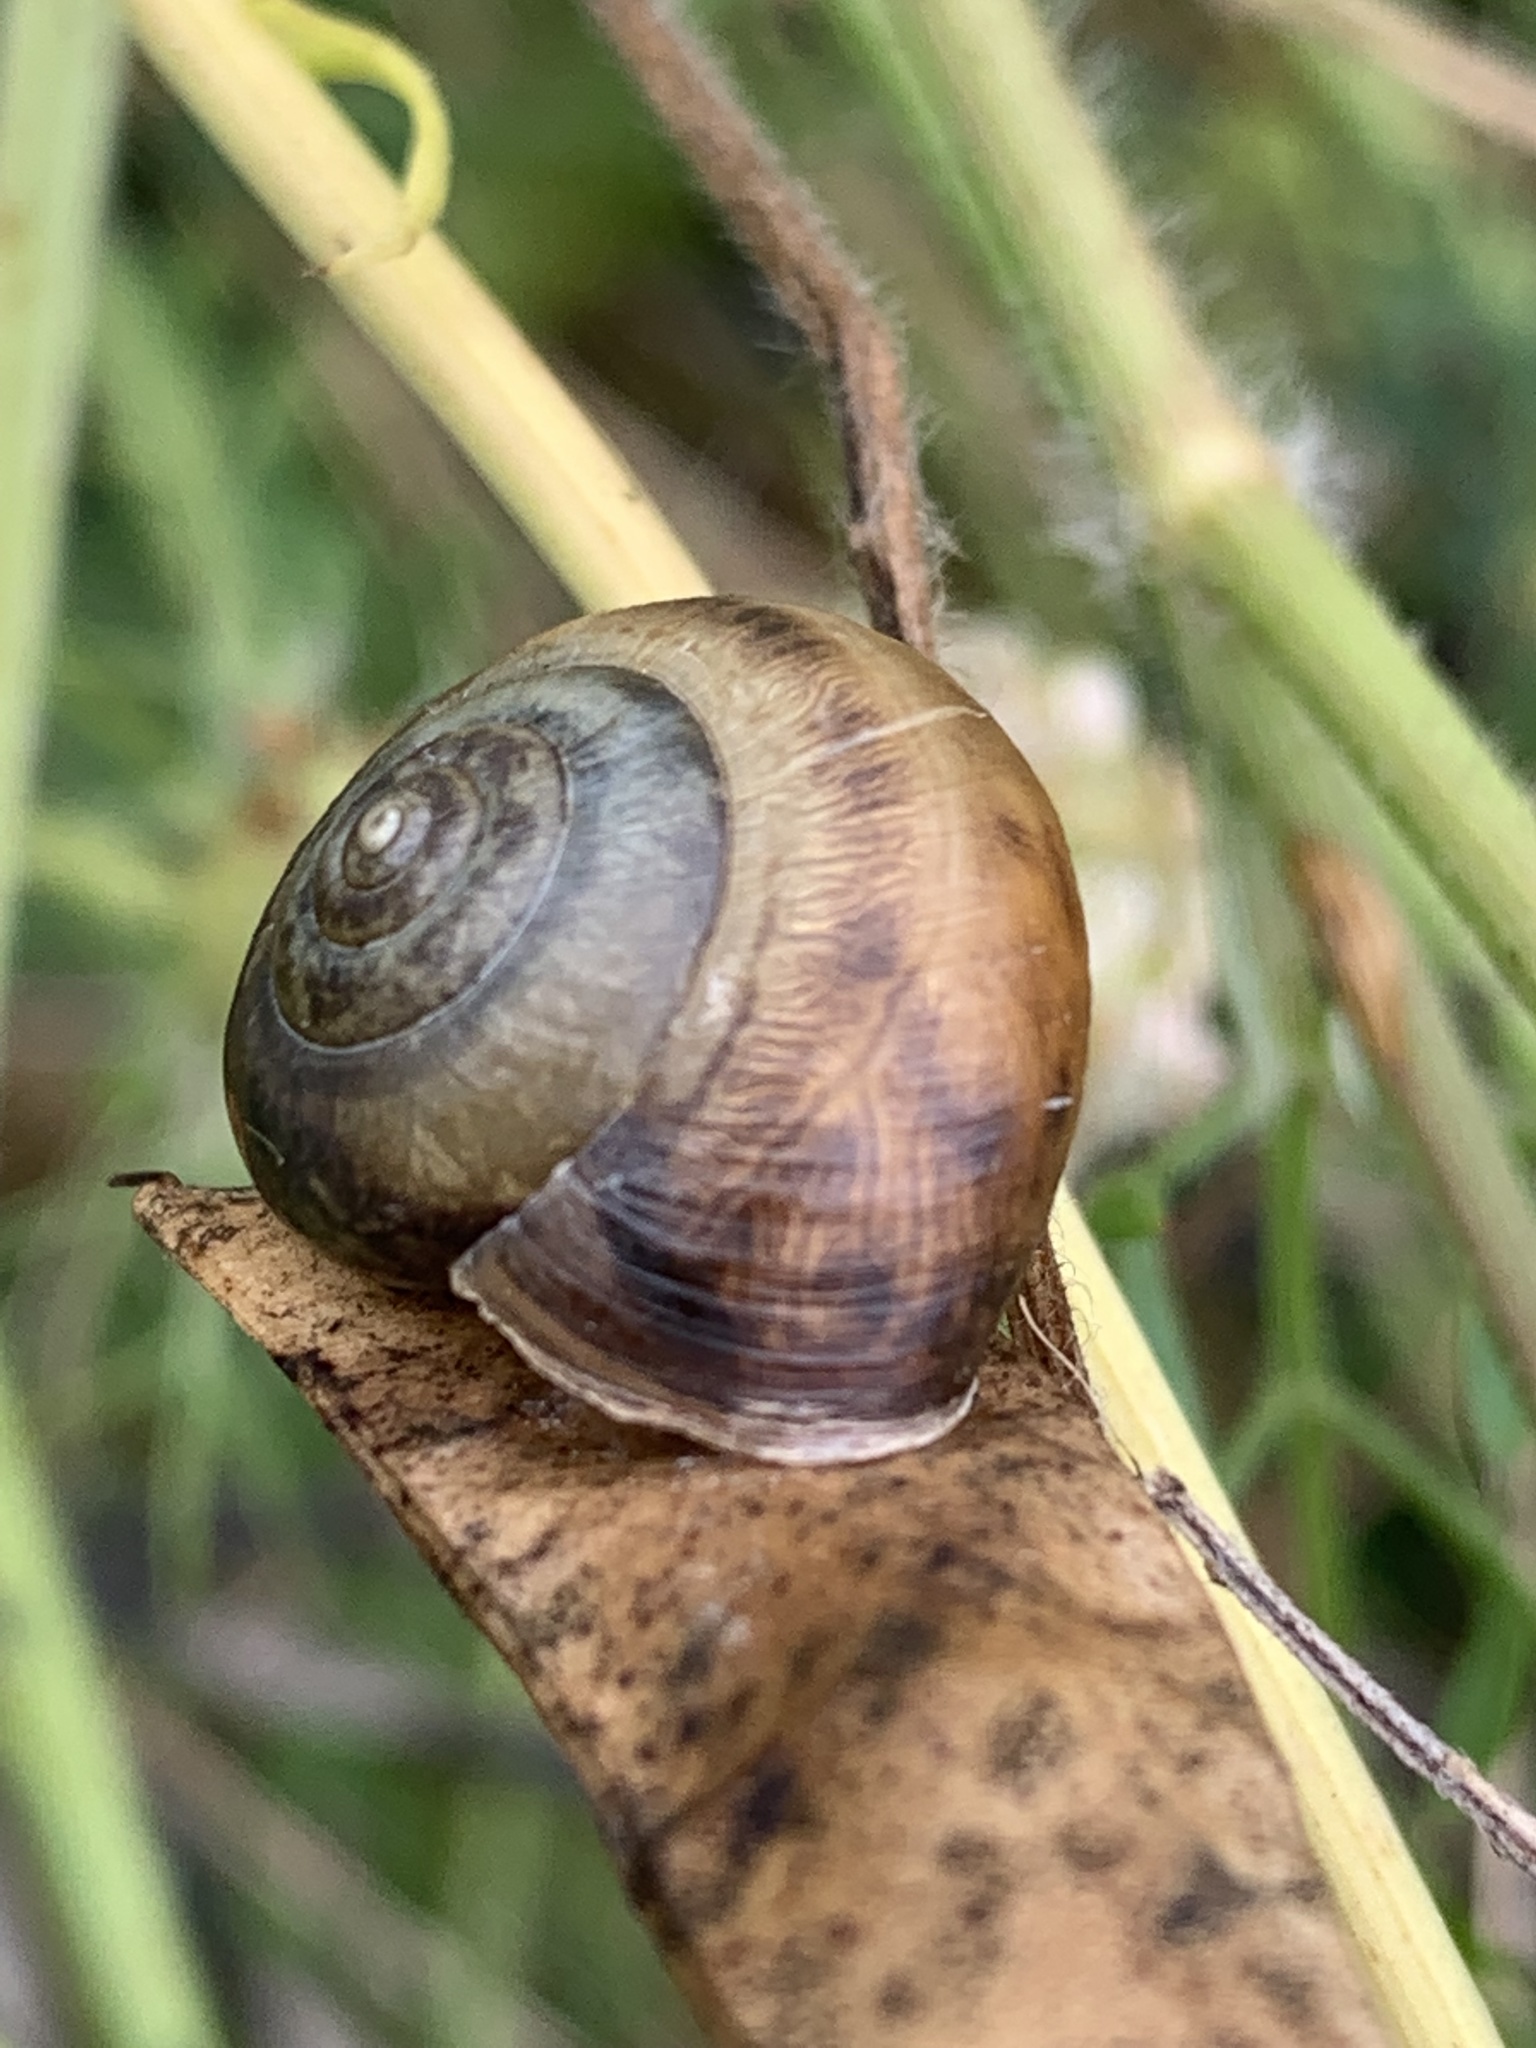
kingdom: Animalia
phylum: Mollusca
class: Gastropoda
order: Stylommatophora
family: Hygromiidae
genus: Monacha
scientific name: Monacha cantiana
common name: Kentish snail
